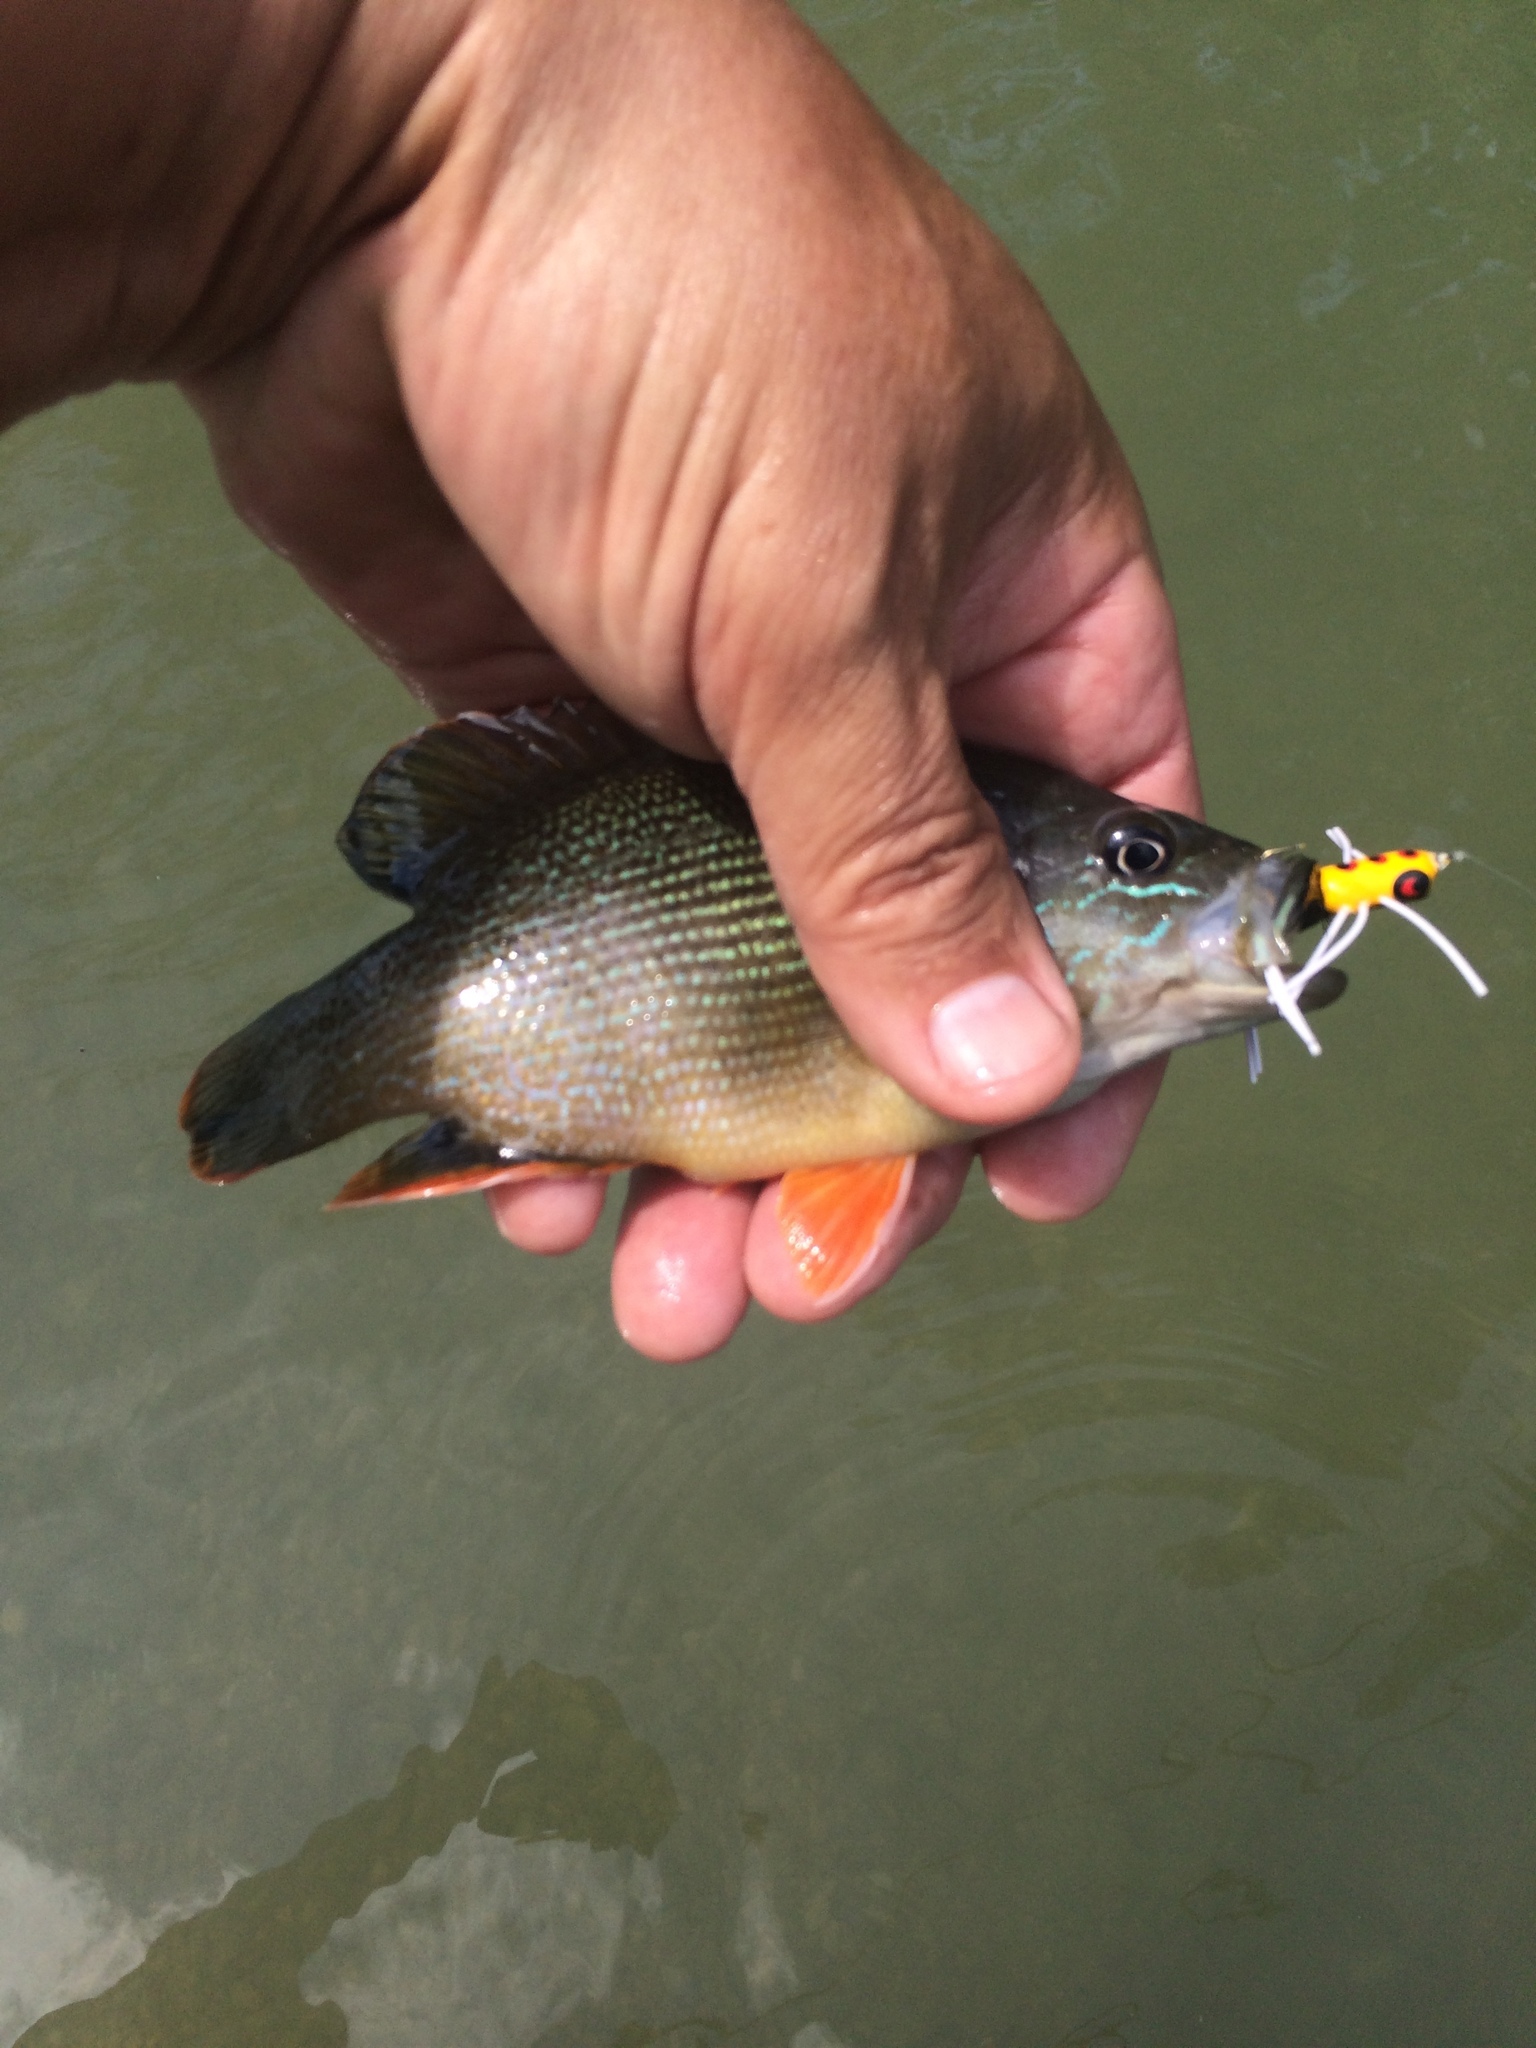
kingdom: Animalia
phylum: Chordata
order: Perciformes
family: Centrarchidae
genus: Lepomis
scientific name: Lepomis cyanellus
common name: Green sunfish
